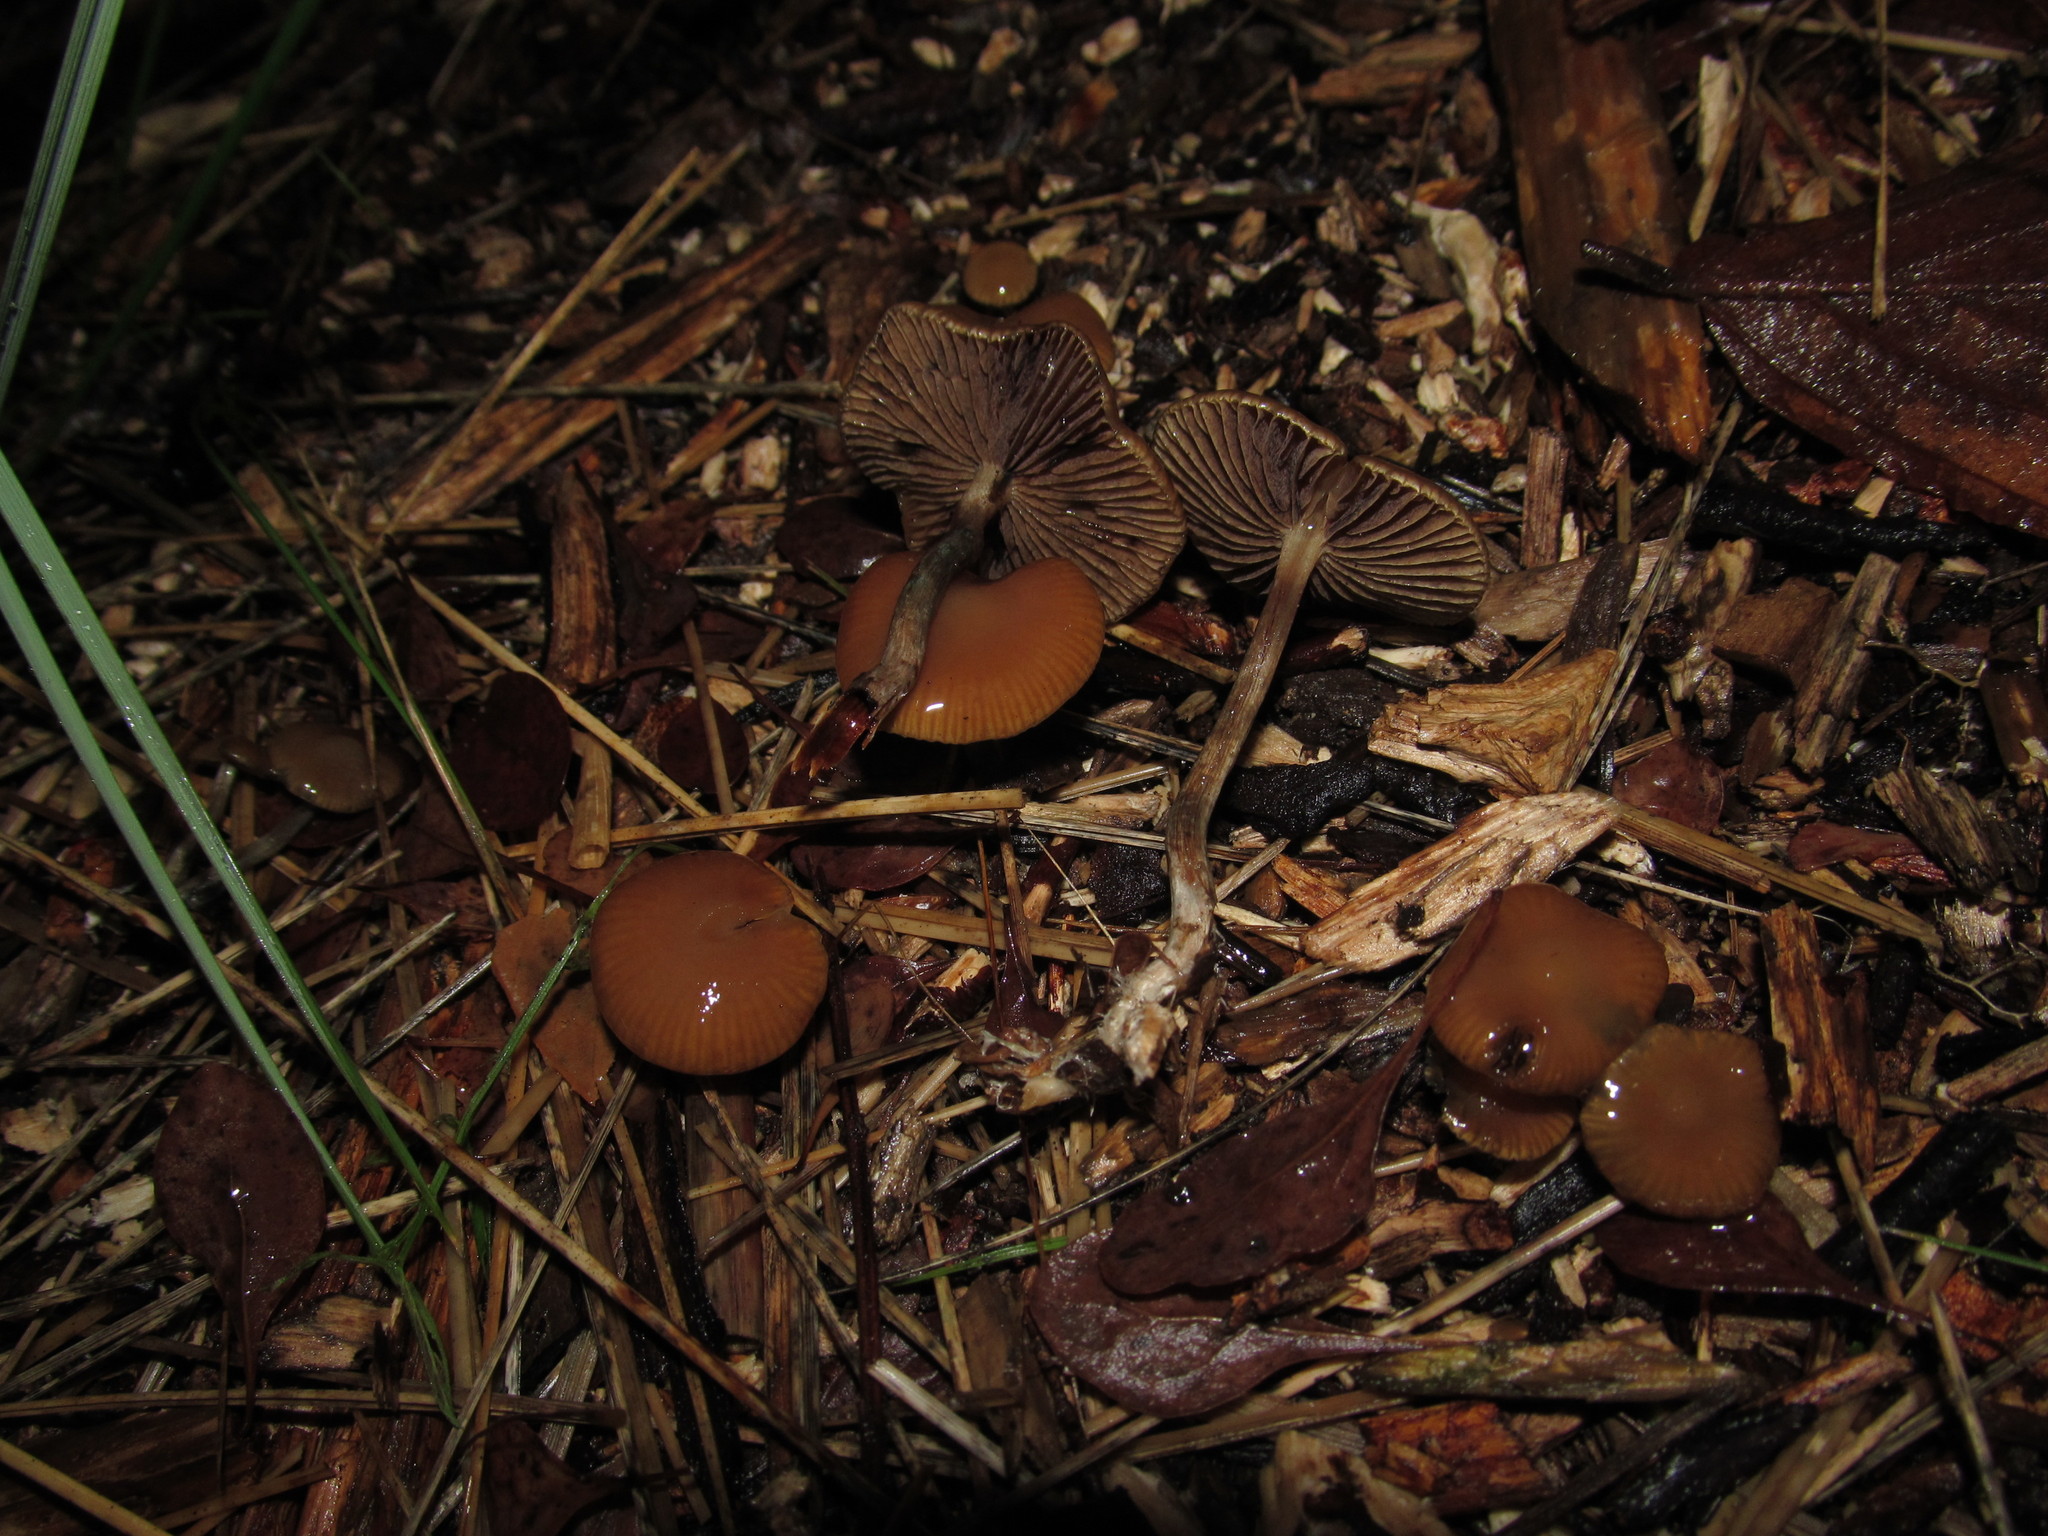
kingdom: Fungi
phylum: Basidiomycota
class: Agaricomycetes
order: Agaricales
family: Hymenogastraceae
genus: Psilocybe
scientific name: Psilocybe cyanescens
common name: Blueleg brownie
